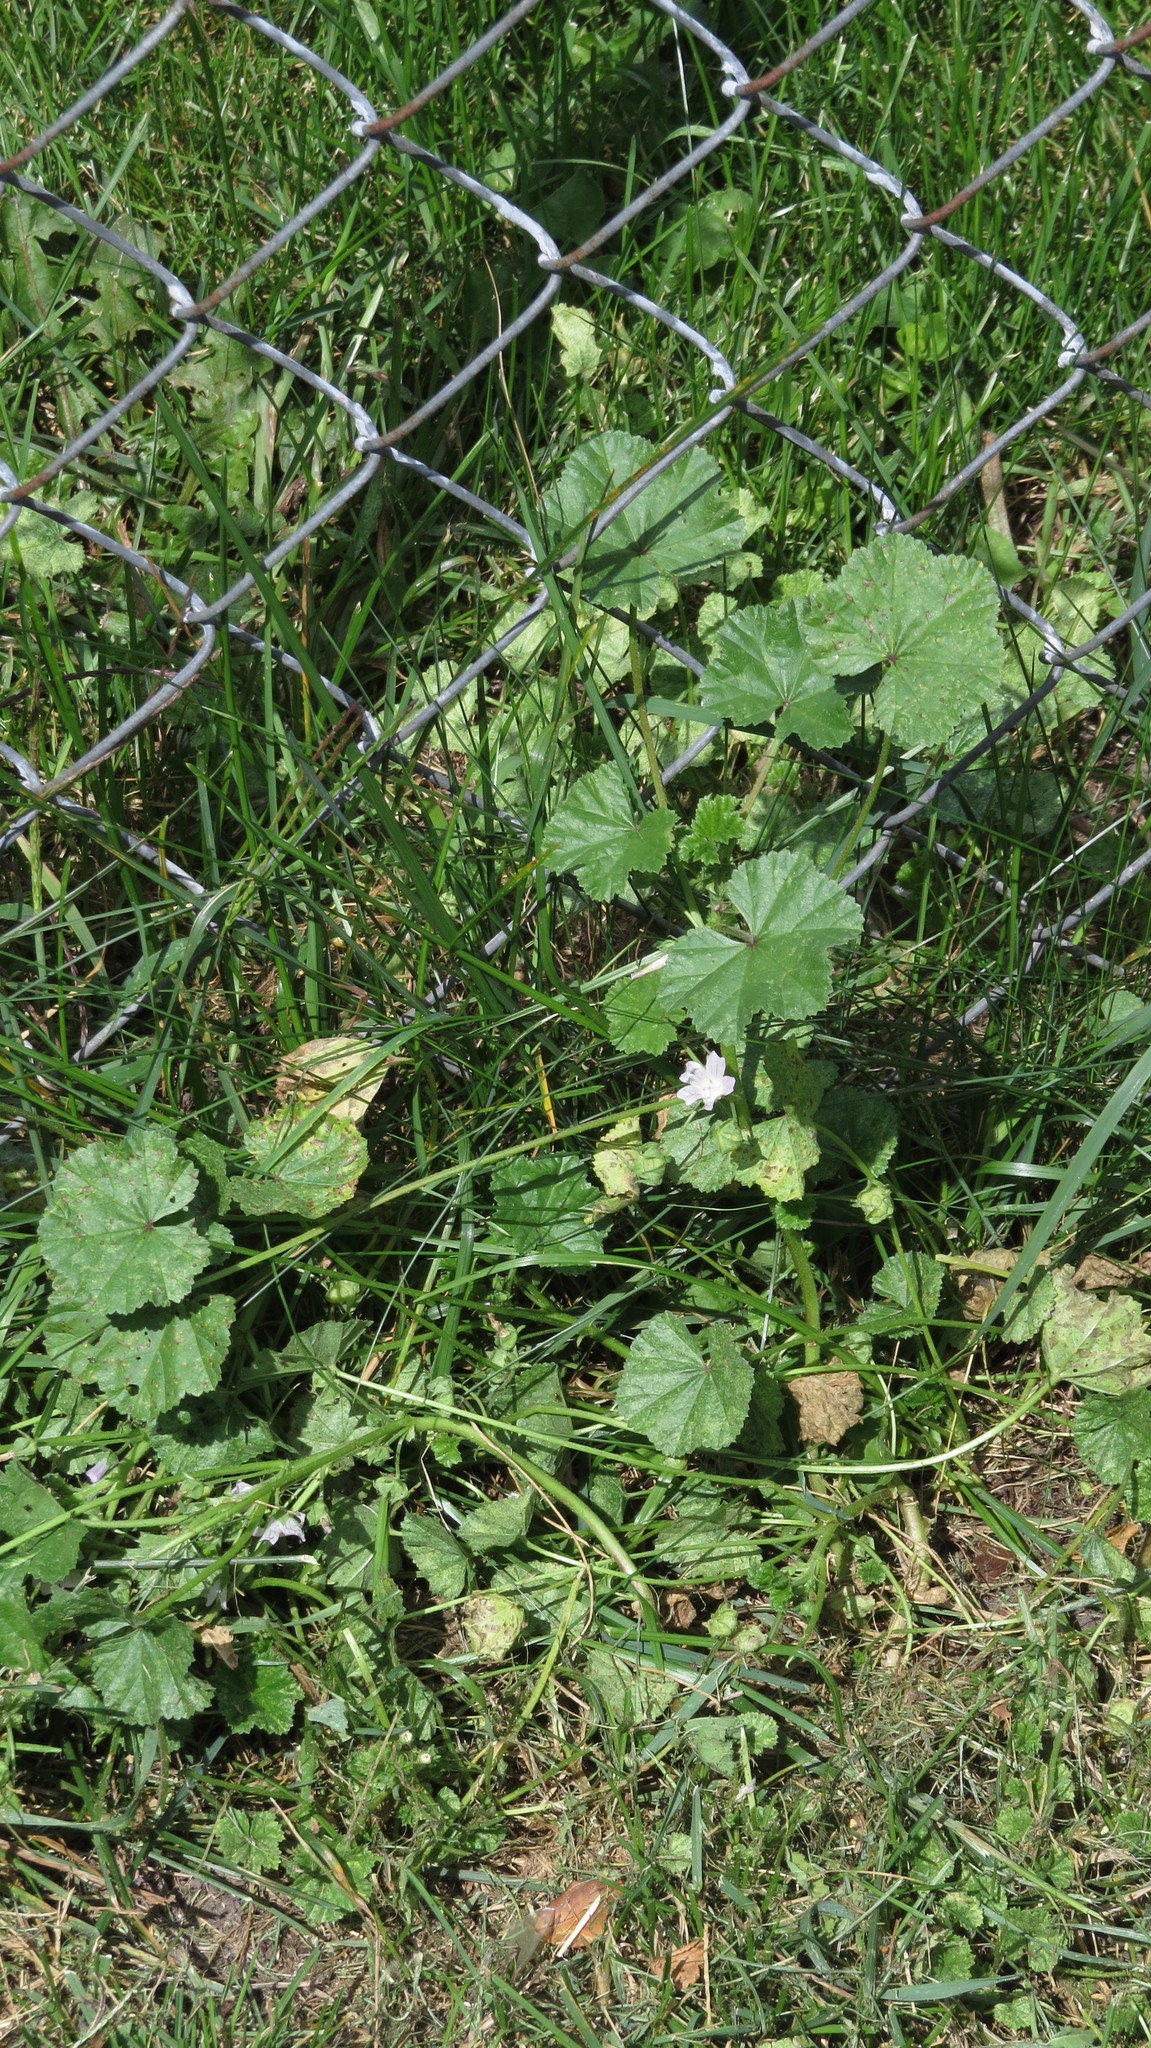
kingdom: Plantae
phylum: Tracheophyta
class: Magnoliopsida
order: Malvales
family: Malvaceae
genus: Malva
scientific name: Malva neglecta
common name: Common mallow
